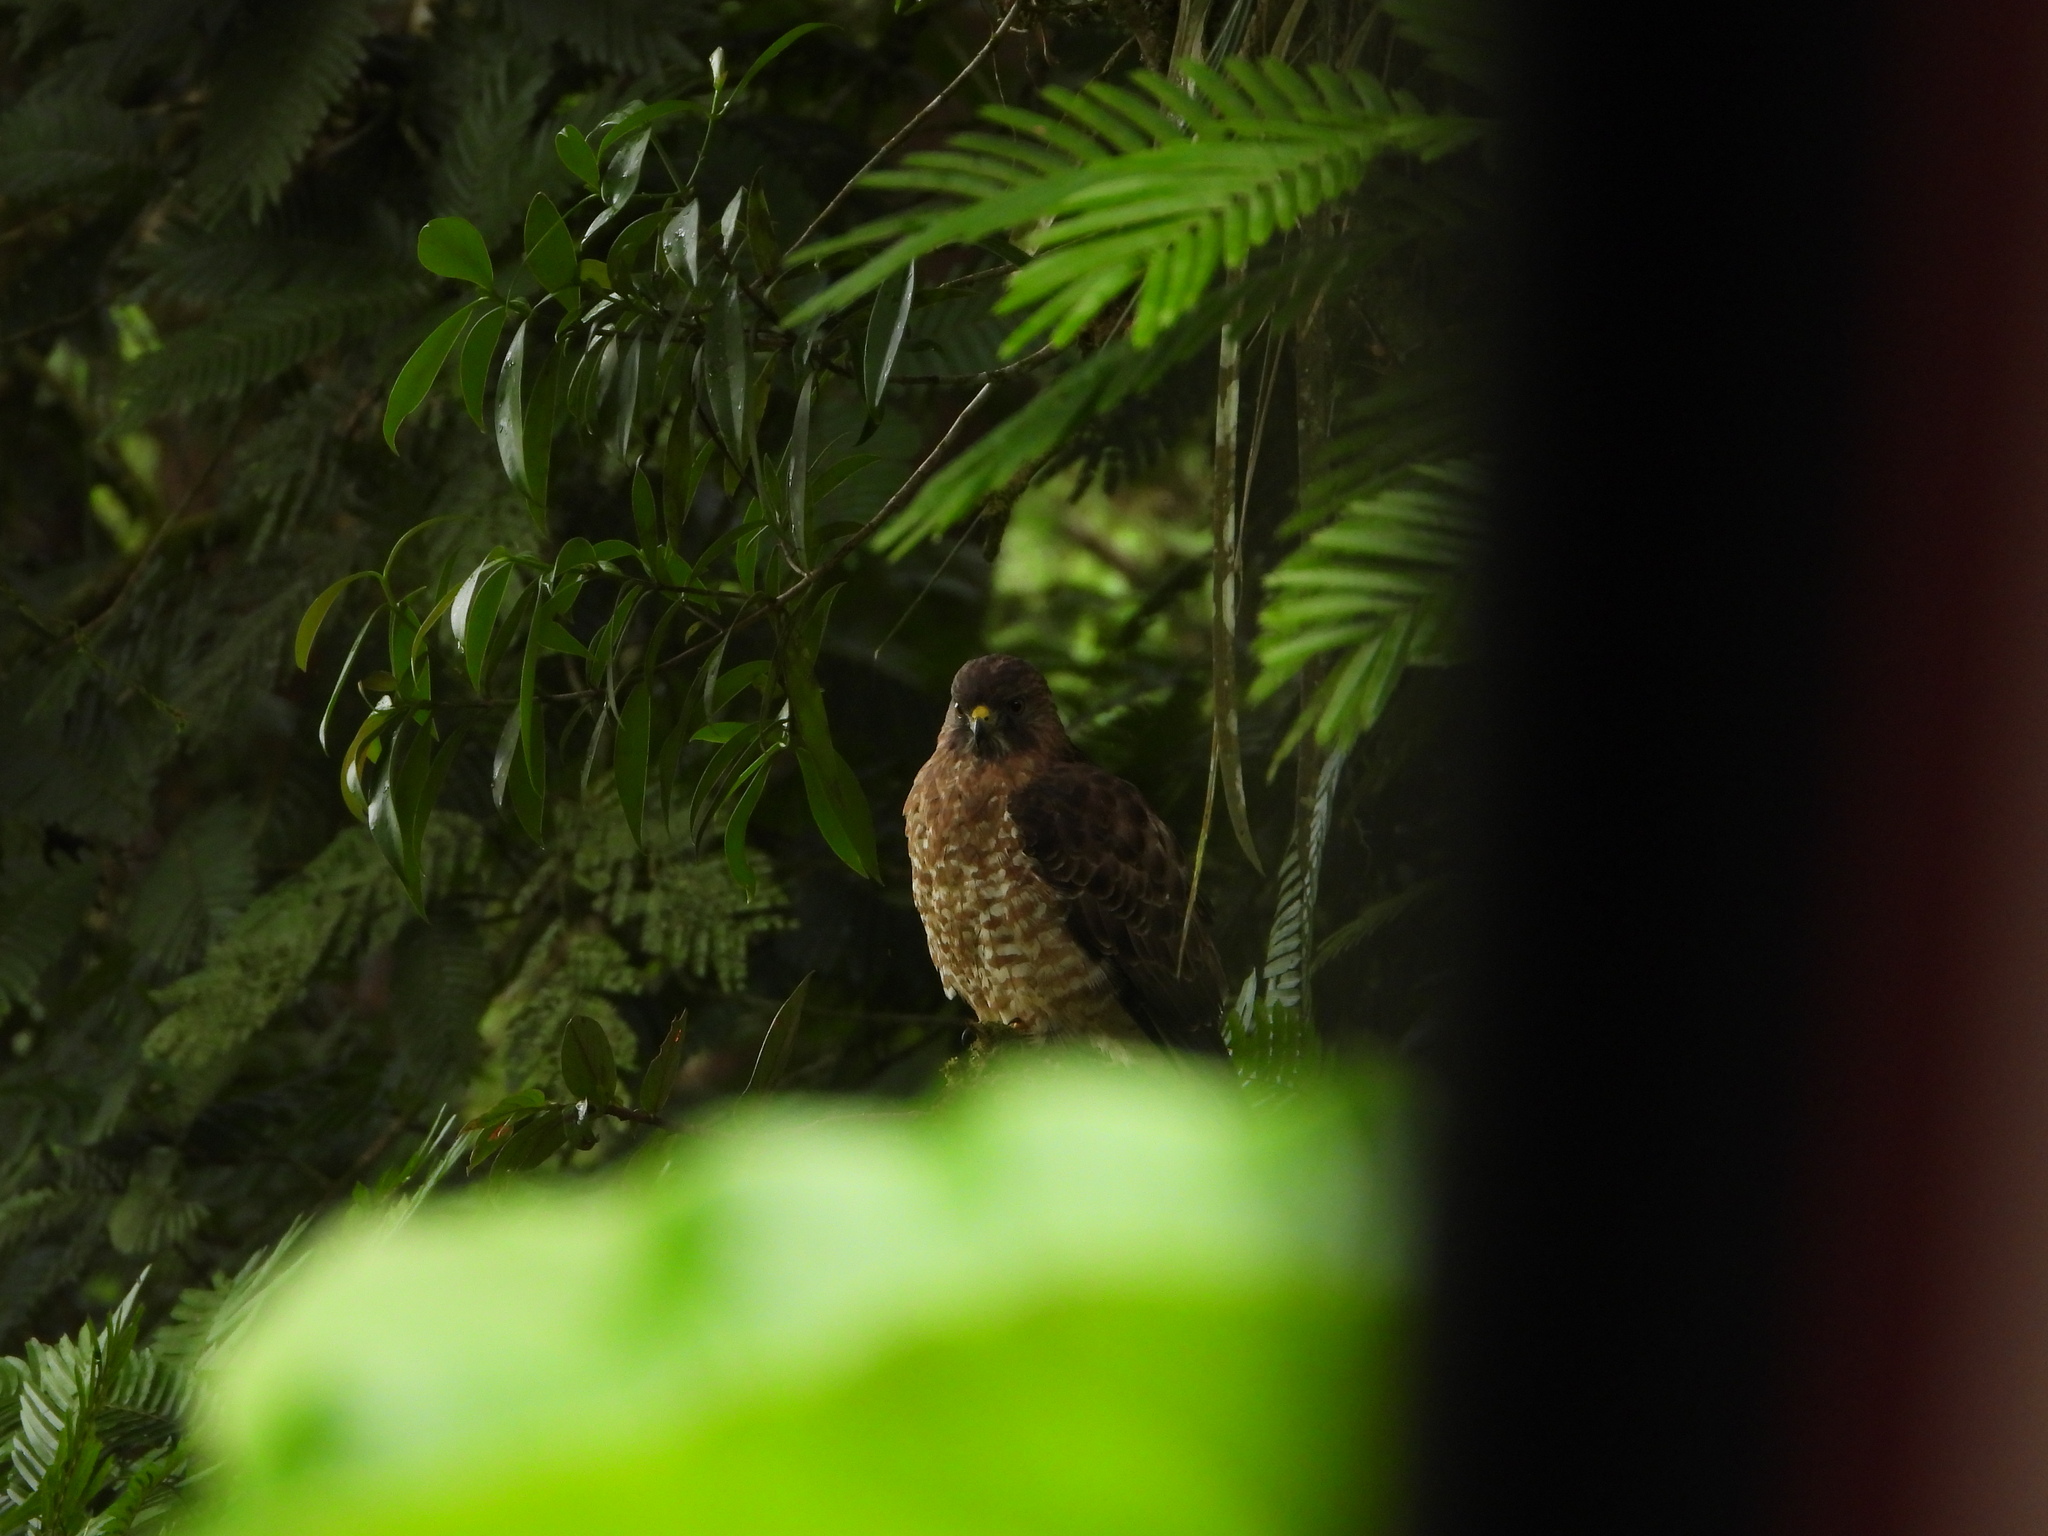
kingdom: Animalia
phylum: Chordata
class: Aves
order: Accipitriformes
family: Accipitridae
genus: Buteo
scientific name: Buteo platypterus
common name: Broad-winged hawk
